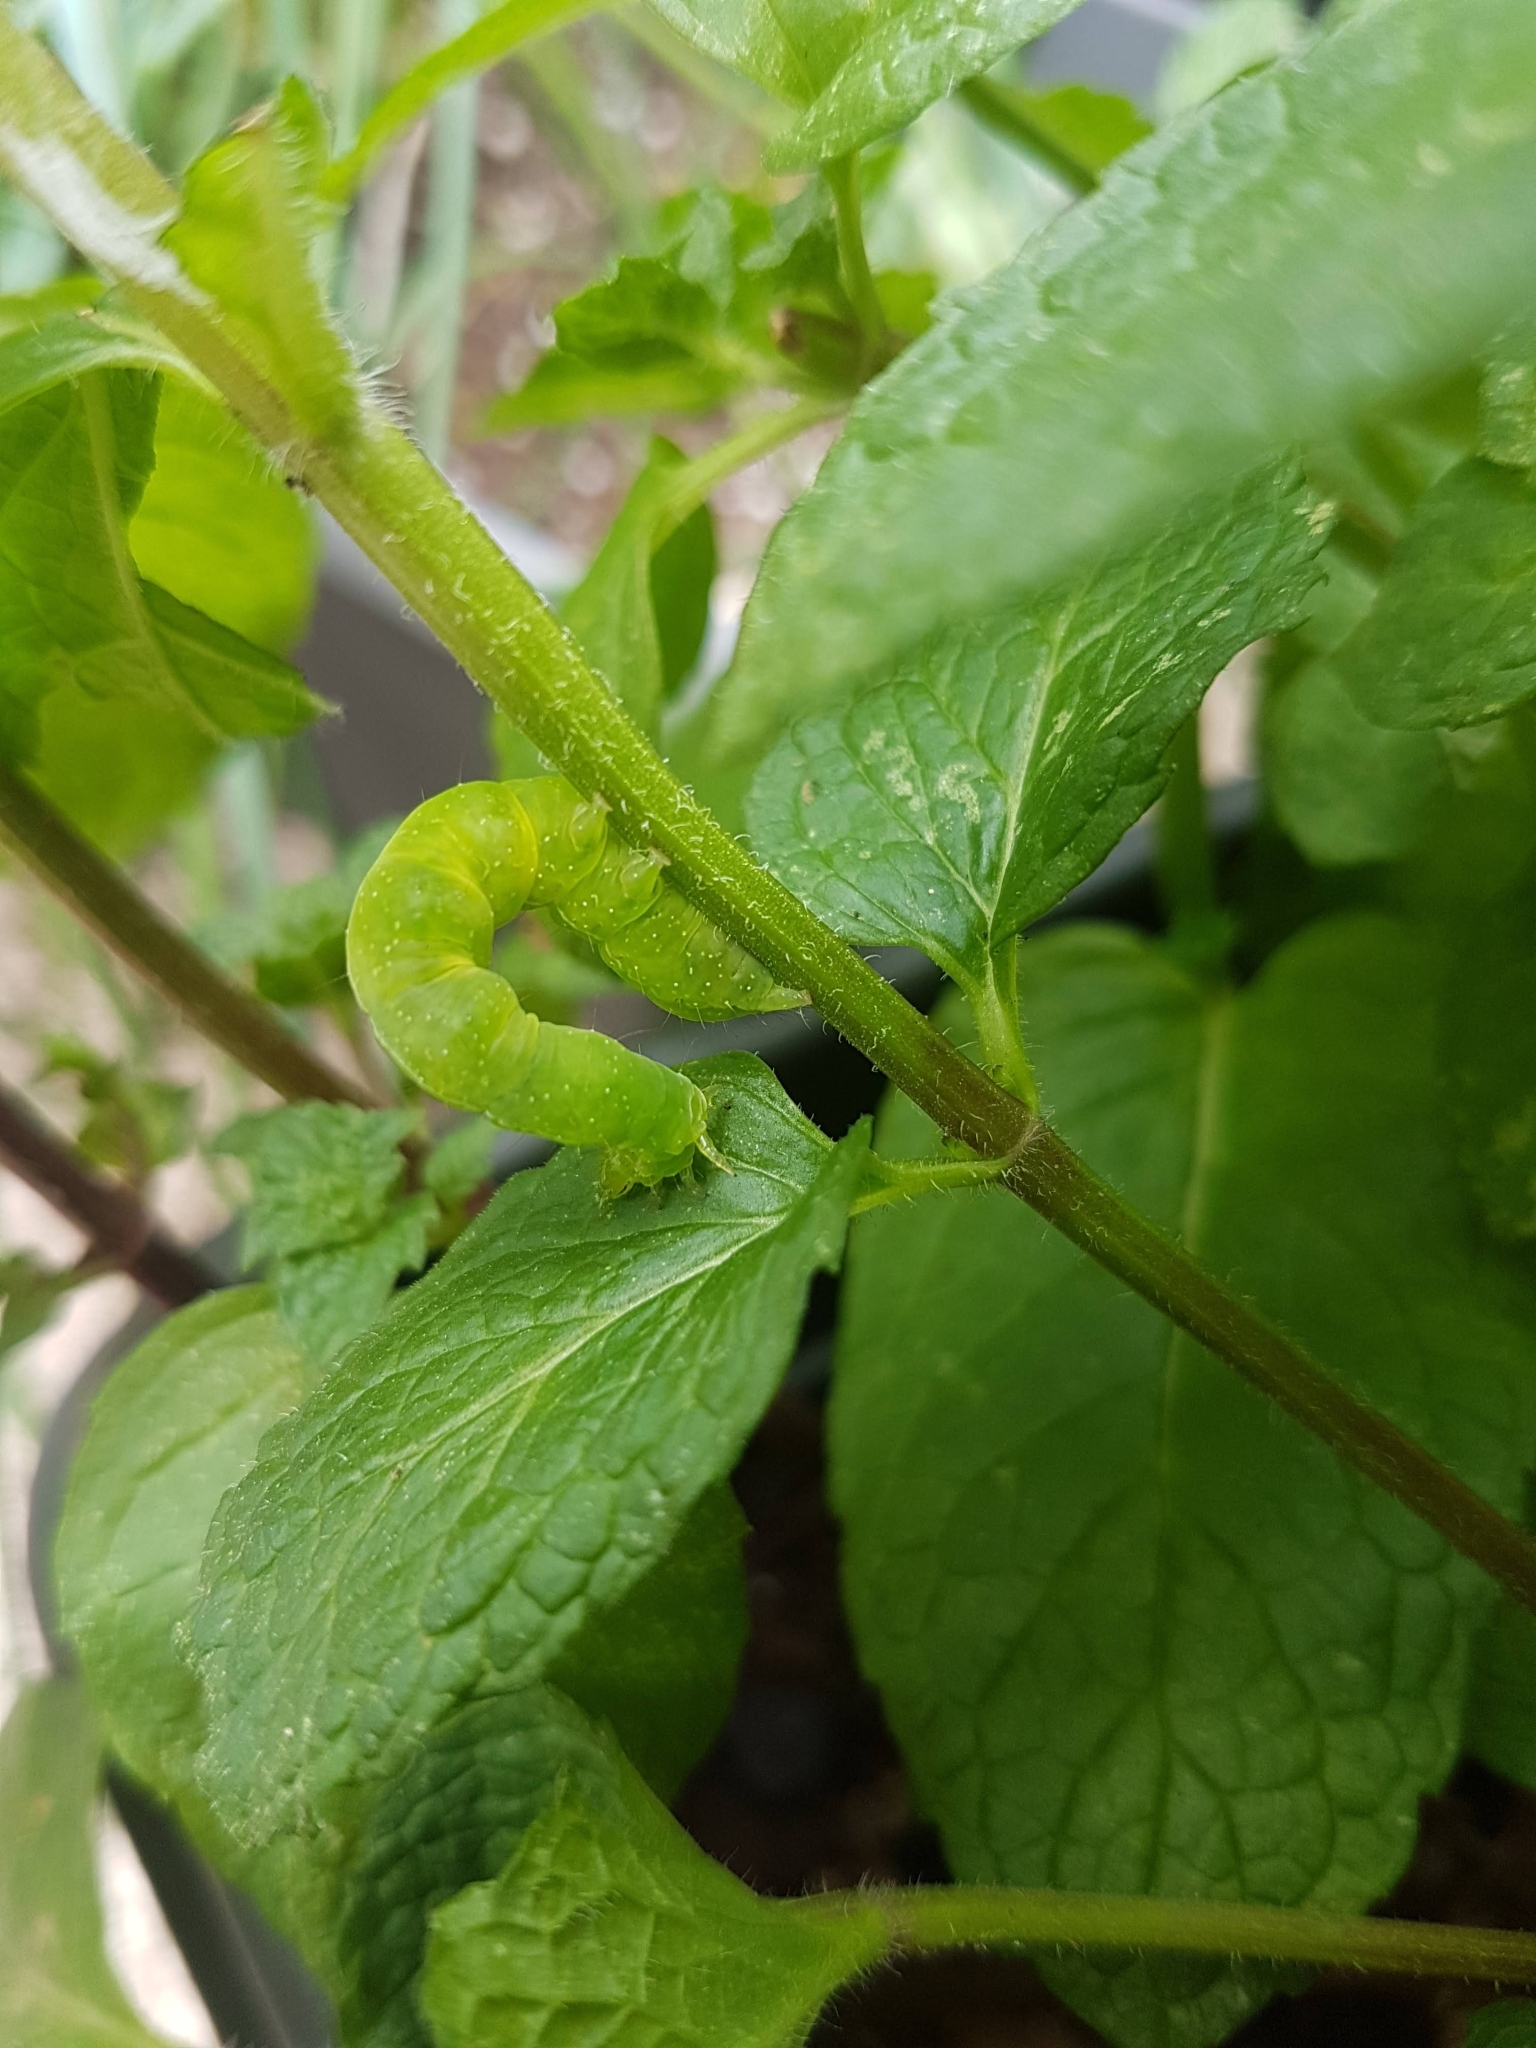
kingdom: Animalia
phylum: Arthropoda
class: Insecta
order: Lepidoptera
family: Noctuidae
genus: Ctenoplusia
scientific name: Ctenoplusia albostriata
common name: Moth
